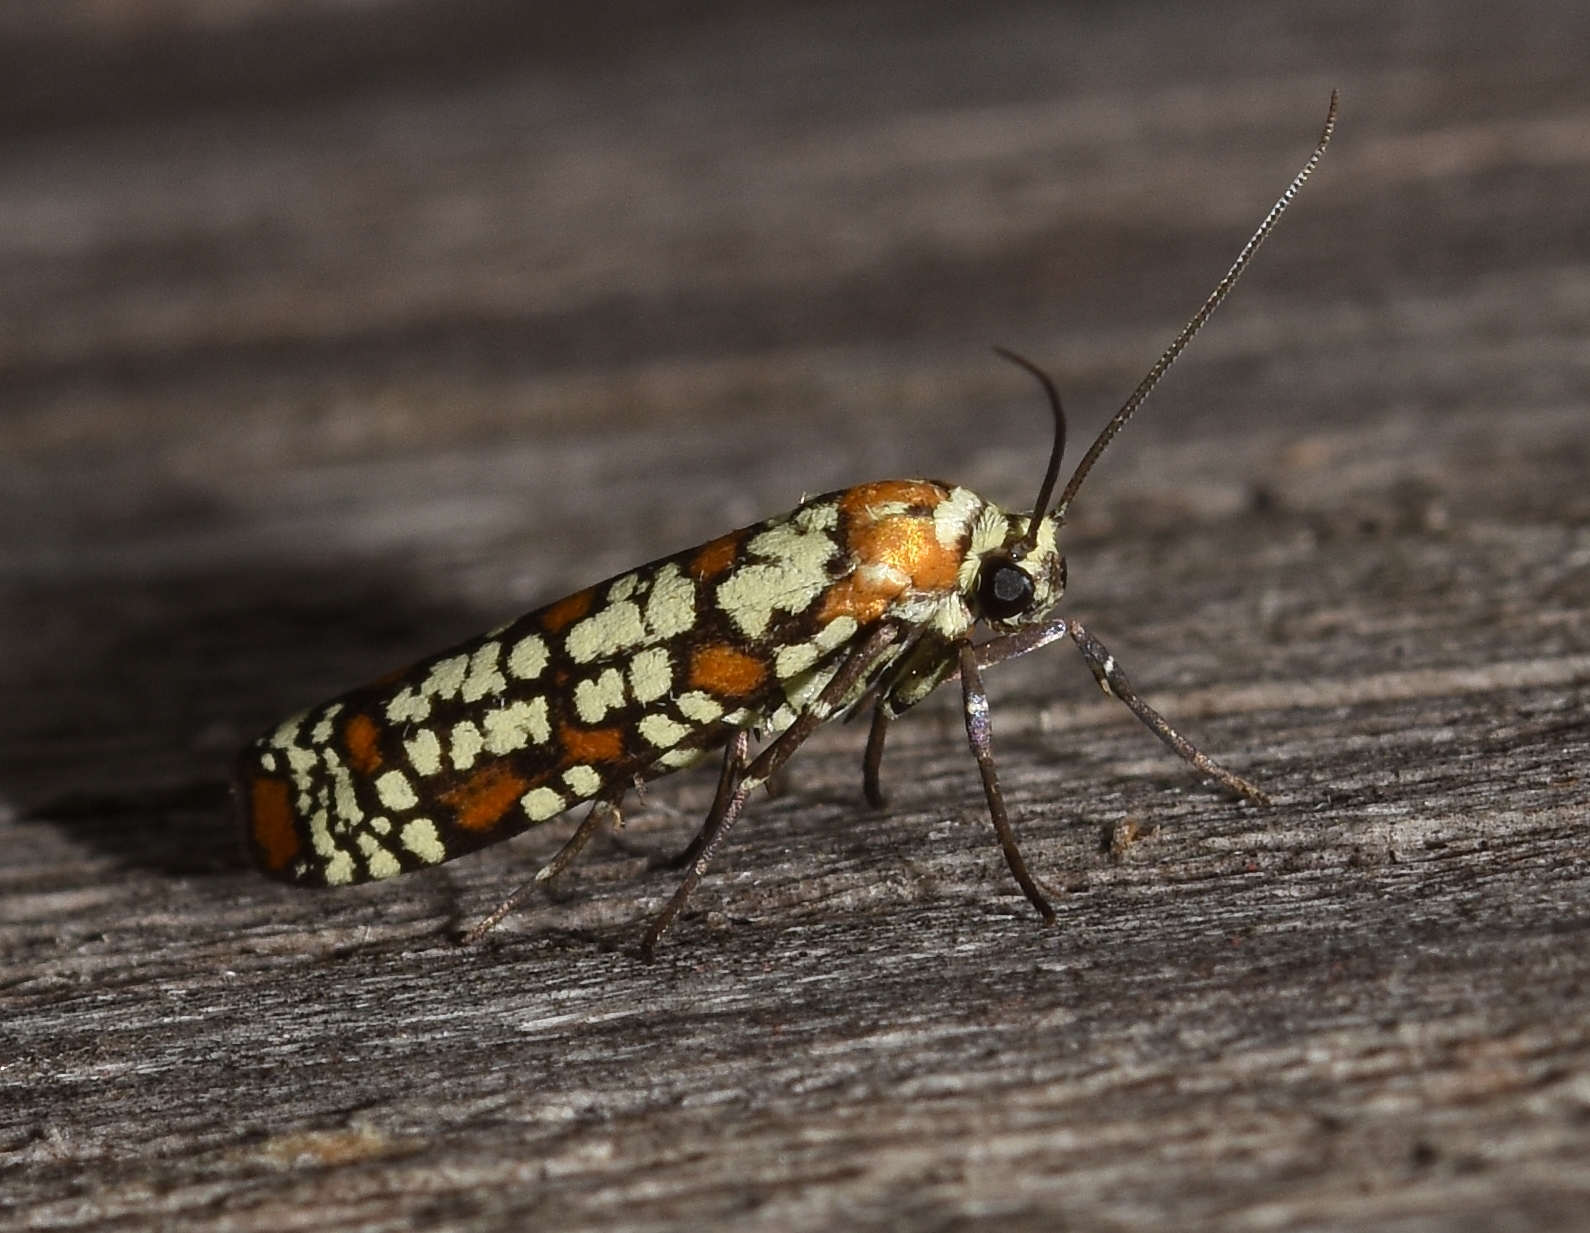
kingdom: Animalia
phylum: Arthropoda
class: Insecta
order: Lepidoptera
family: Attevidae
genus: Atteva
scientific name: Atteva punctella
